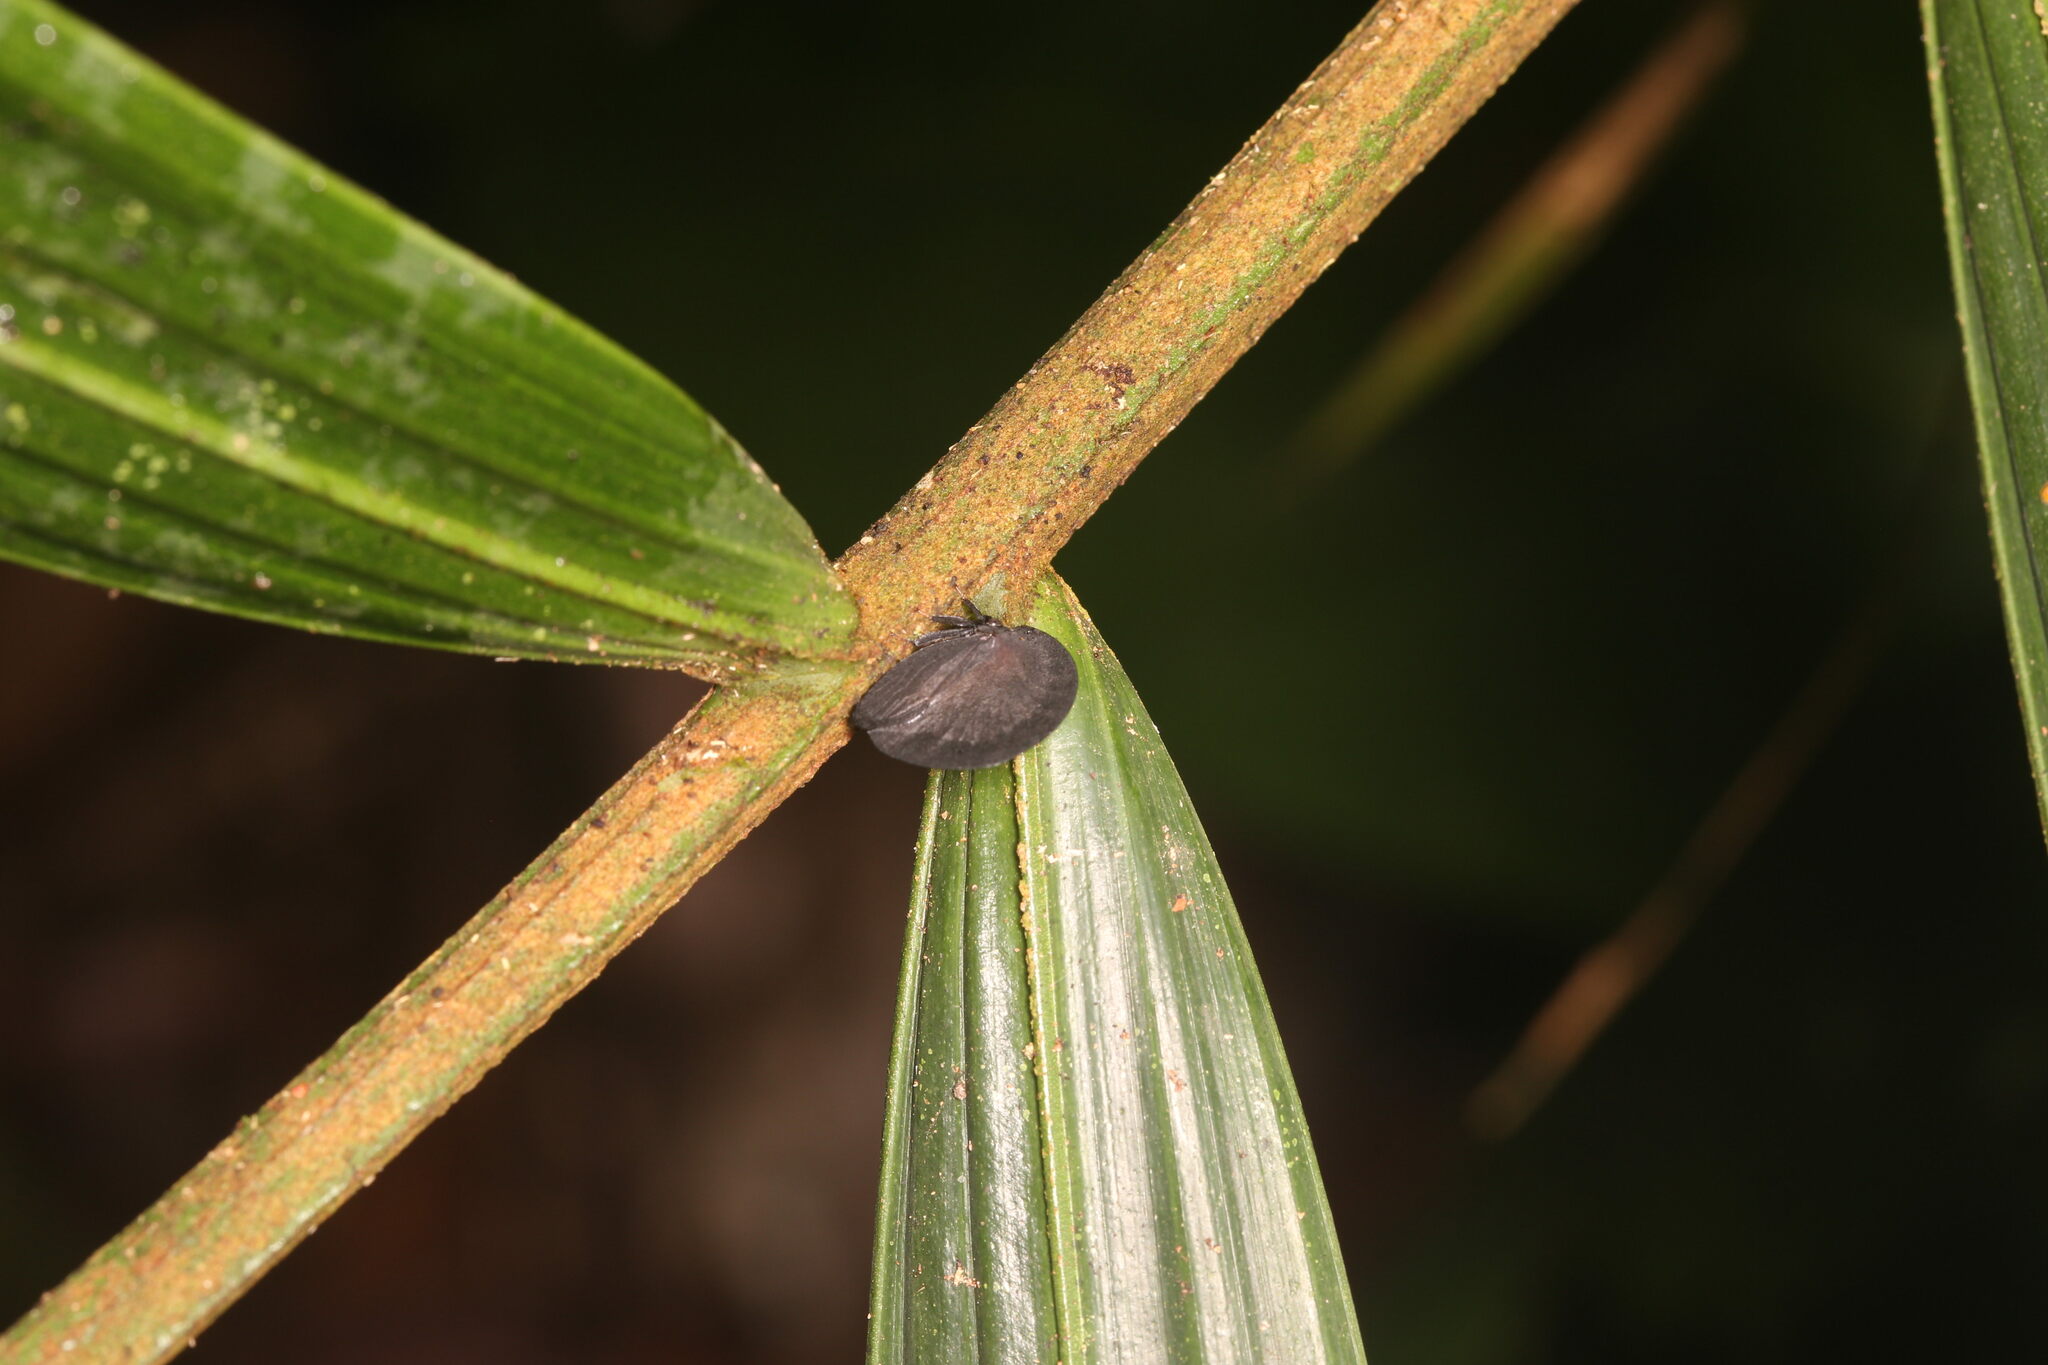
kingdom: Animalia
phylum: Arthropoda
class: Insecta
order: Hemiptera
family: Membracidae
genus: Membracis
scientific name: Membracis foliatafusca
